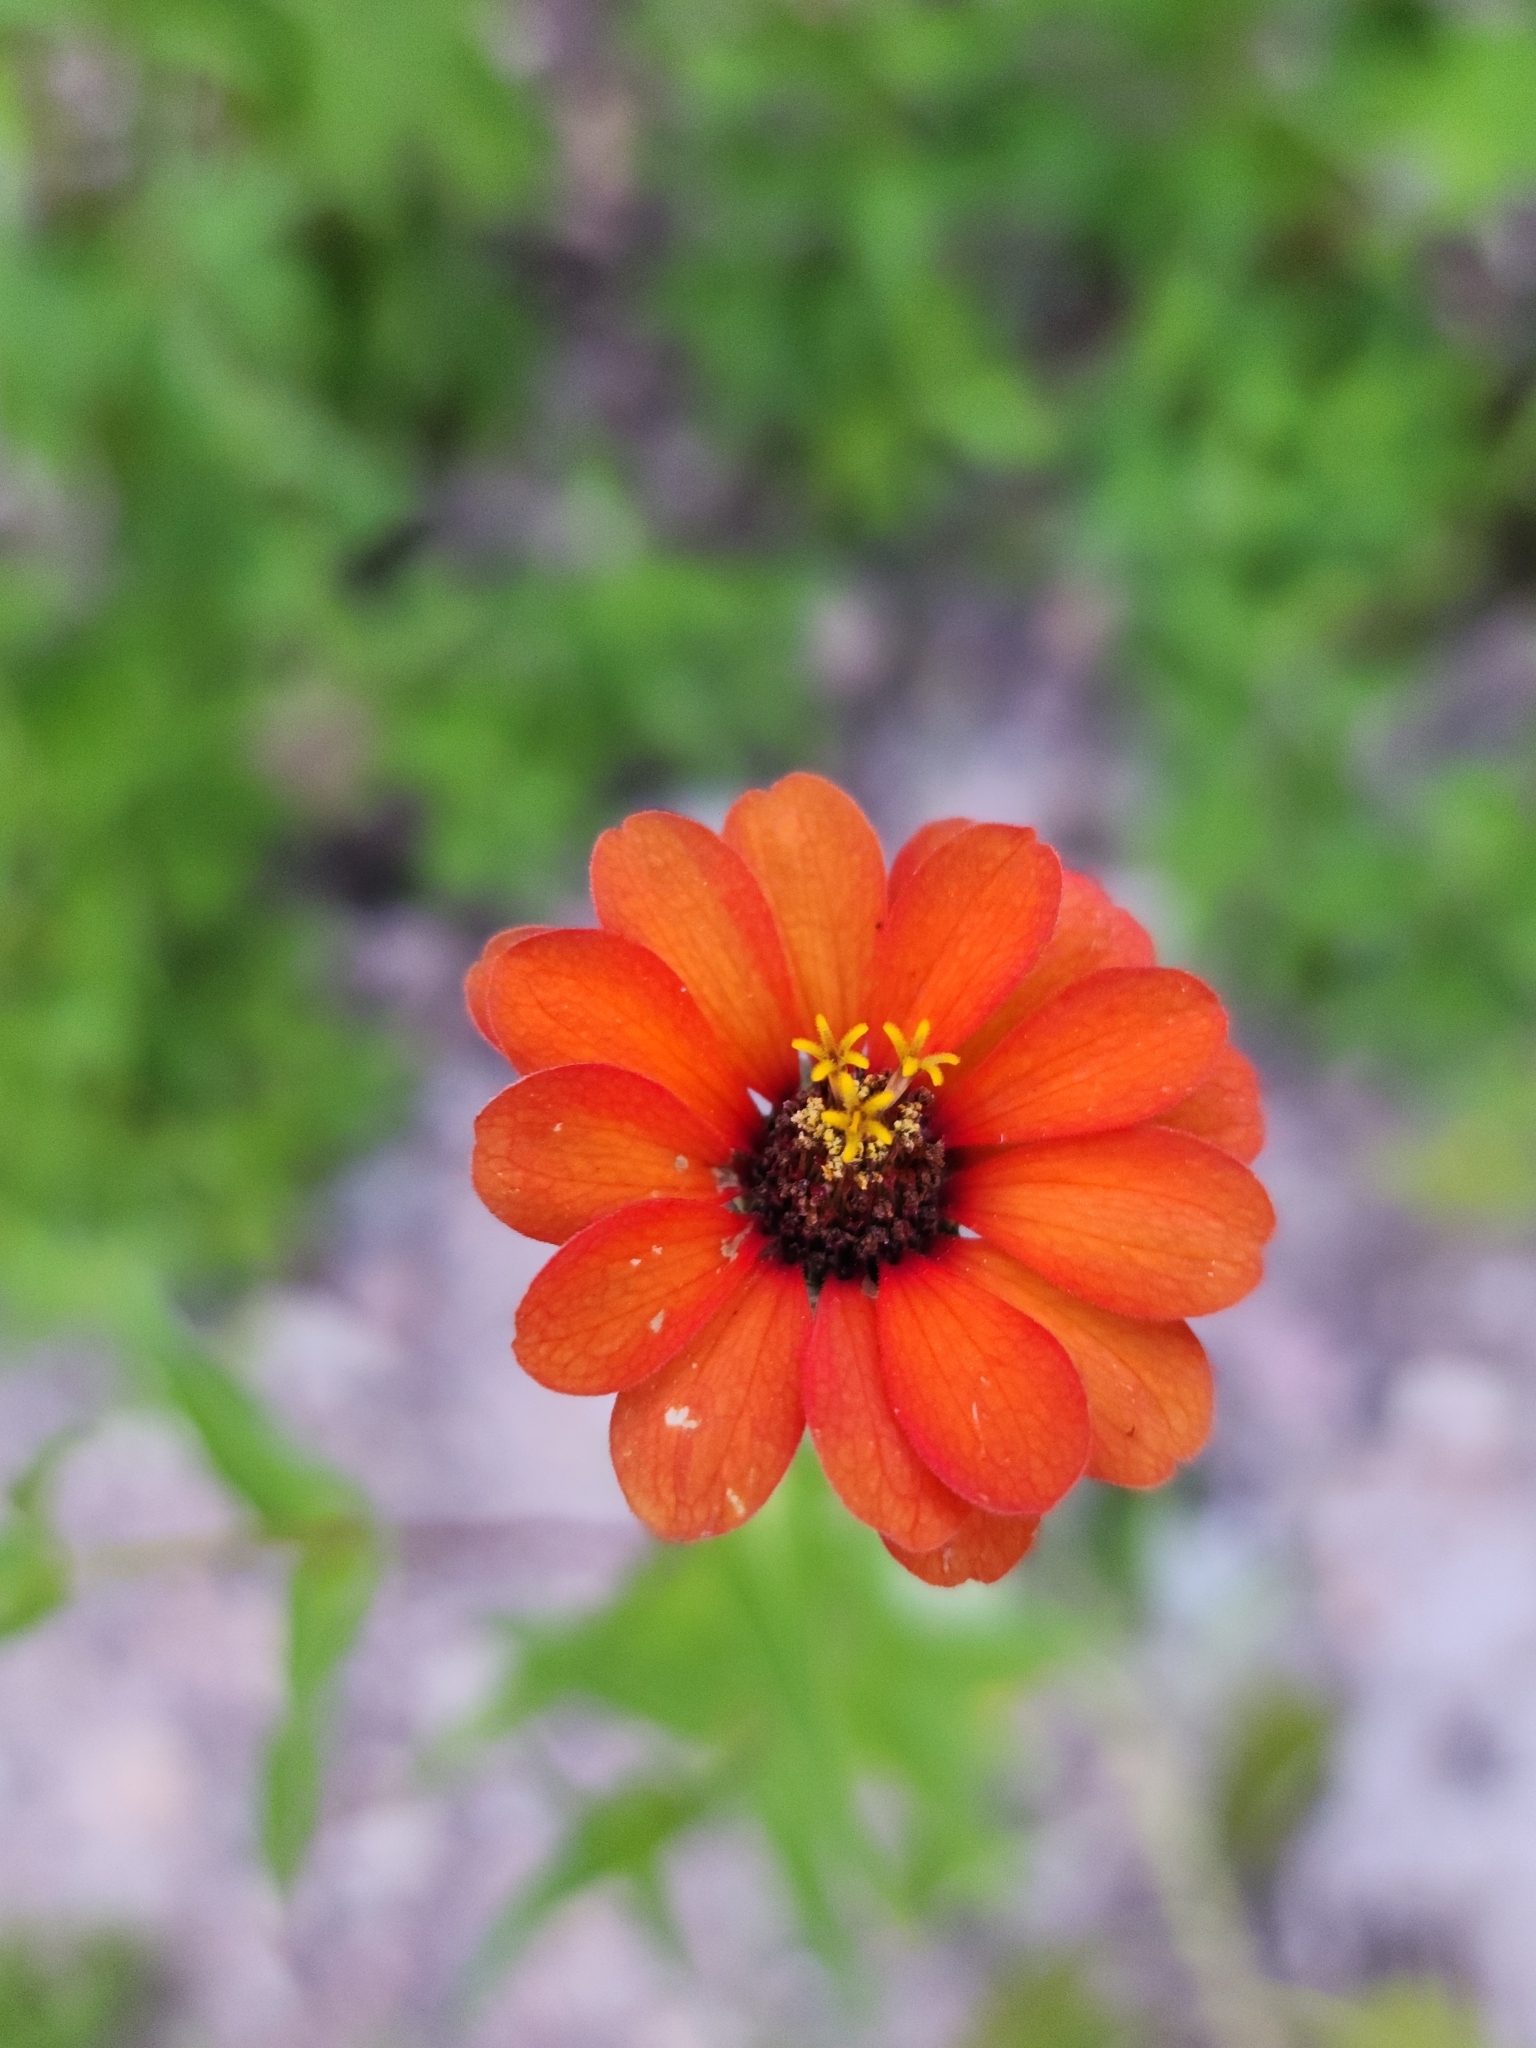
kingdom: Plantae
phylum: Tracheophyta
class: Magnoliopsida
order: Asterales
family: Asteraceae
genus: Zinnia
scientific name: Zinnia peruviana
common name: Peruvian zinnia
